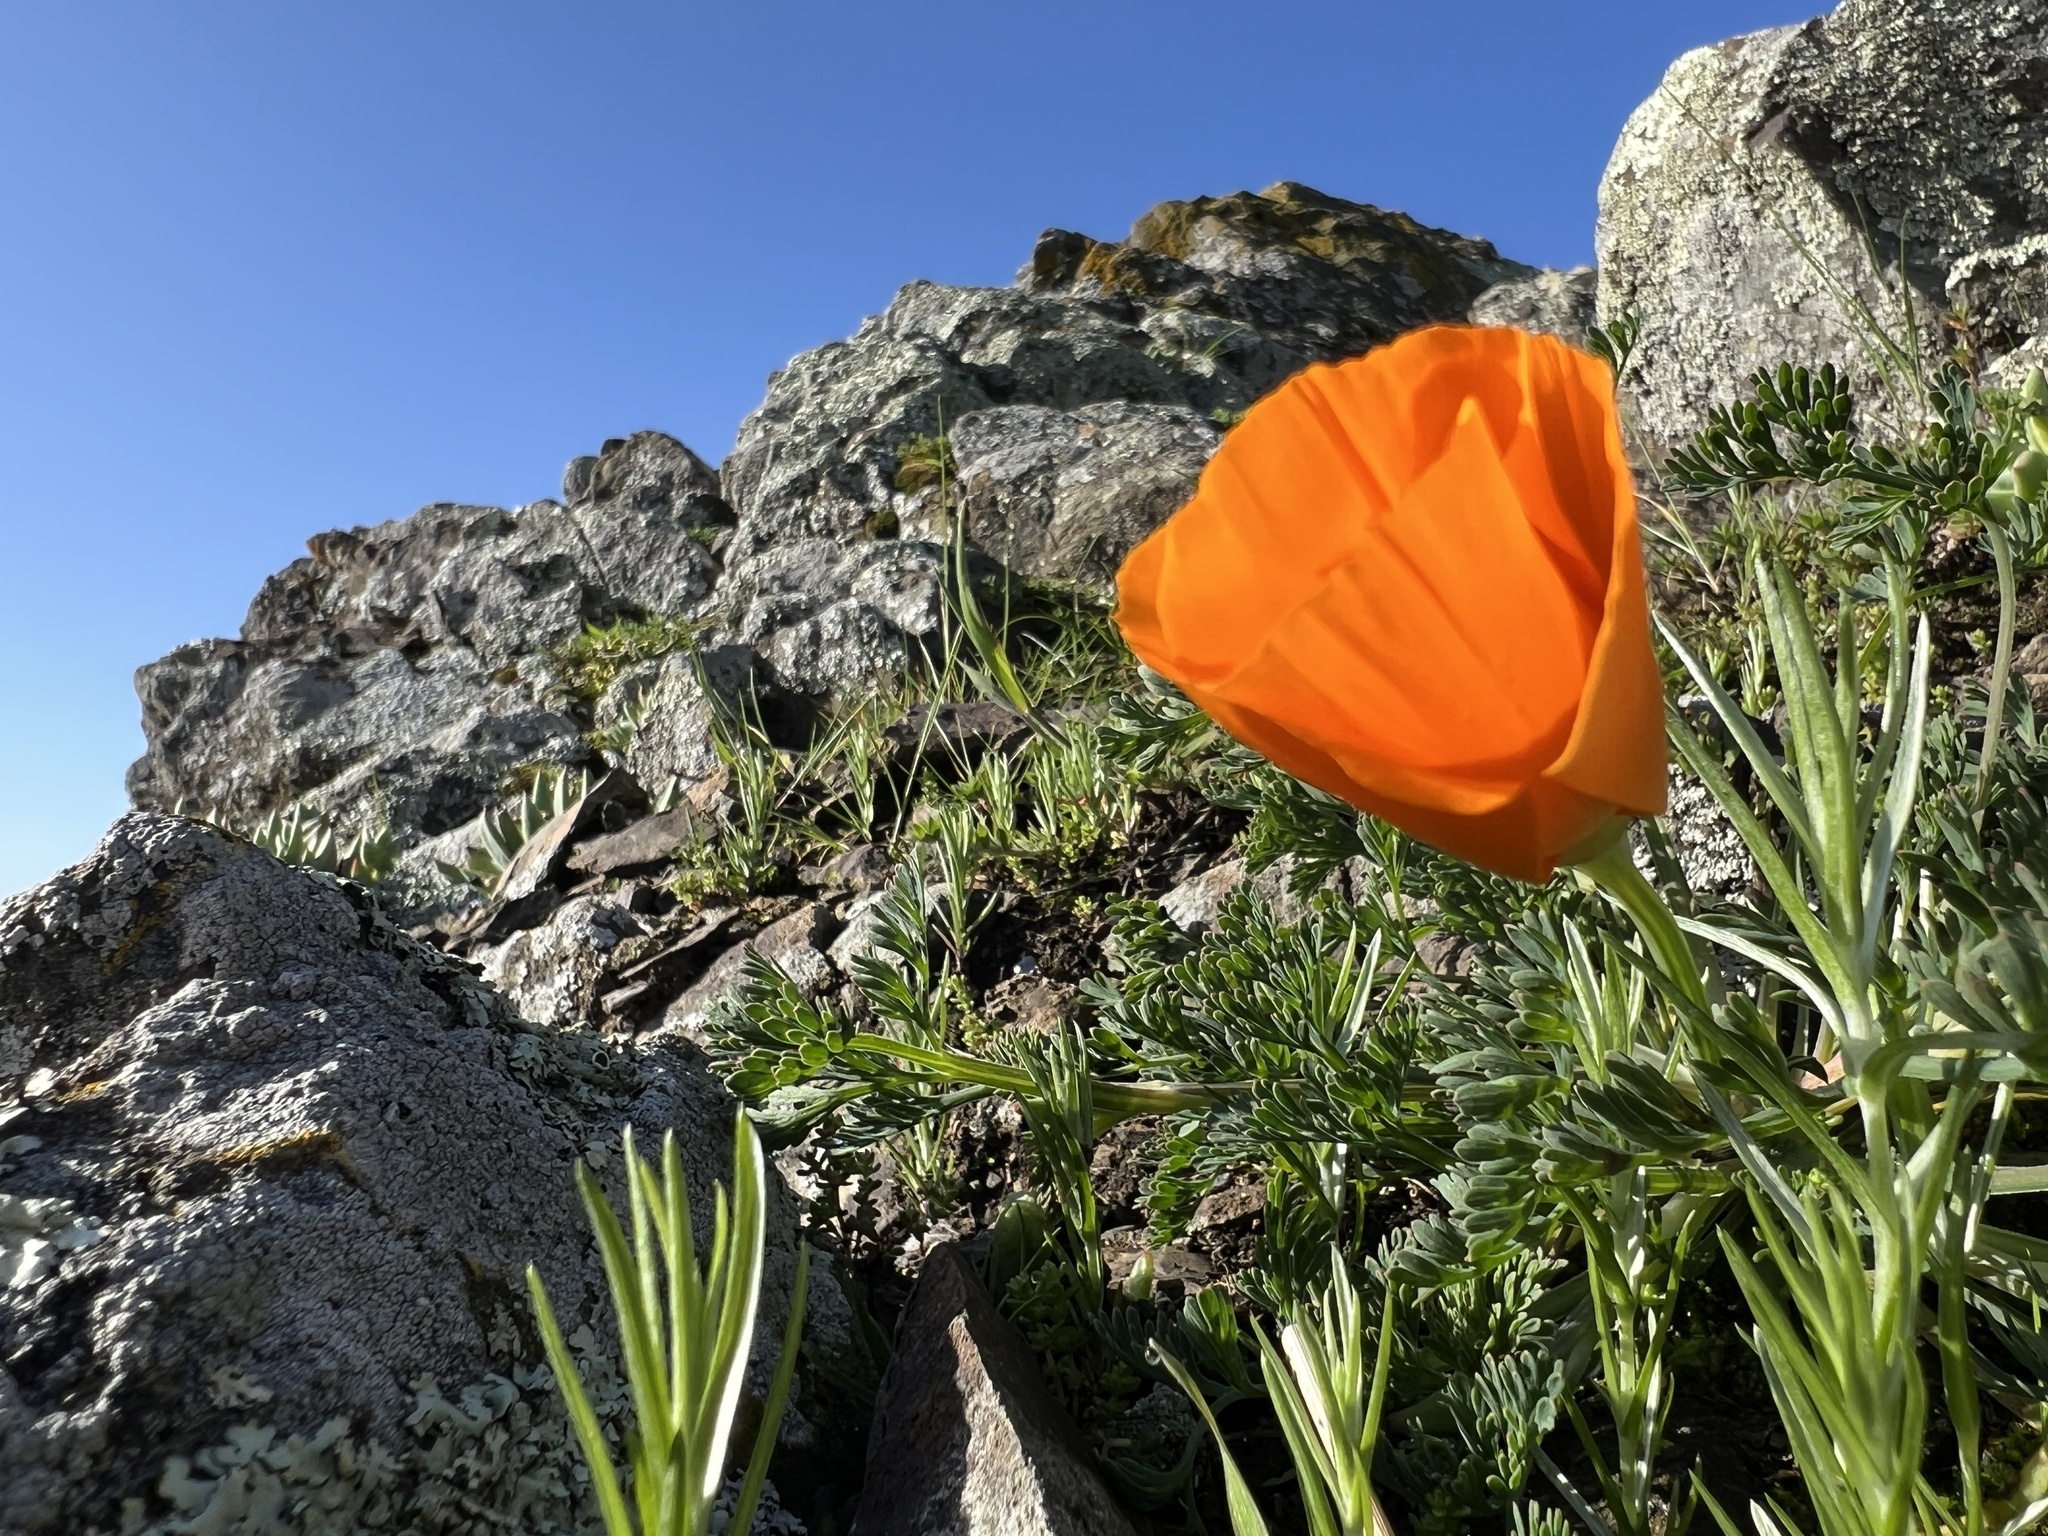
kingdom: Plantae
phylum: Tracheophyta
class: Magnoliopsida
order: Ranunculales
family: Papaveraceae
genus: Eschscholzia
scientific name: Eschscholzia californica
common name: California poppy
